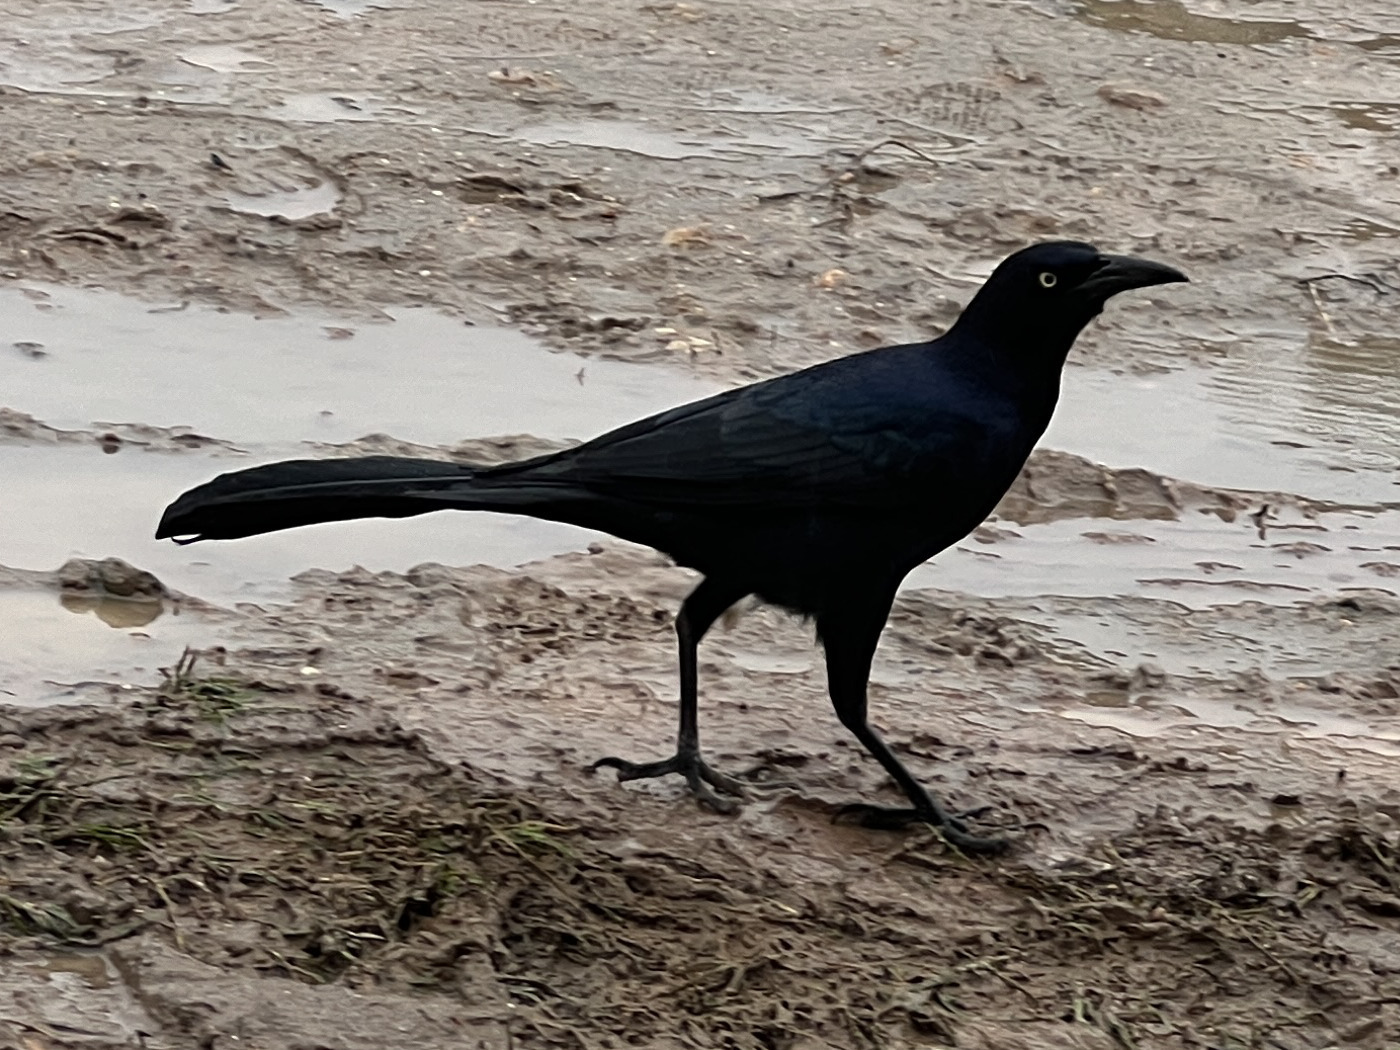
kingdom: Animalia
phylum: Chordata
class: Aves
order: Passeriformes
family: Icteridae
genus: Quiscalus
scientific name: Quiscalus mexicanus
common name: Great-tailed grackle
